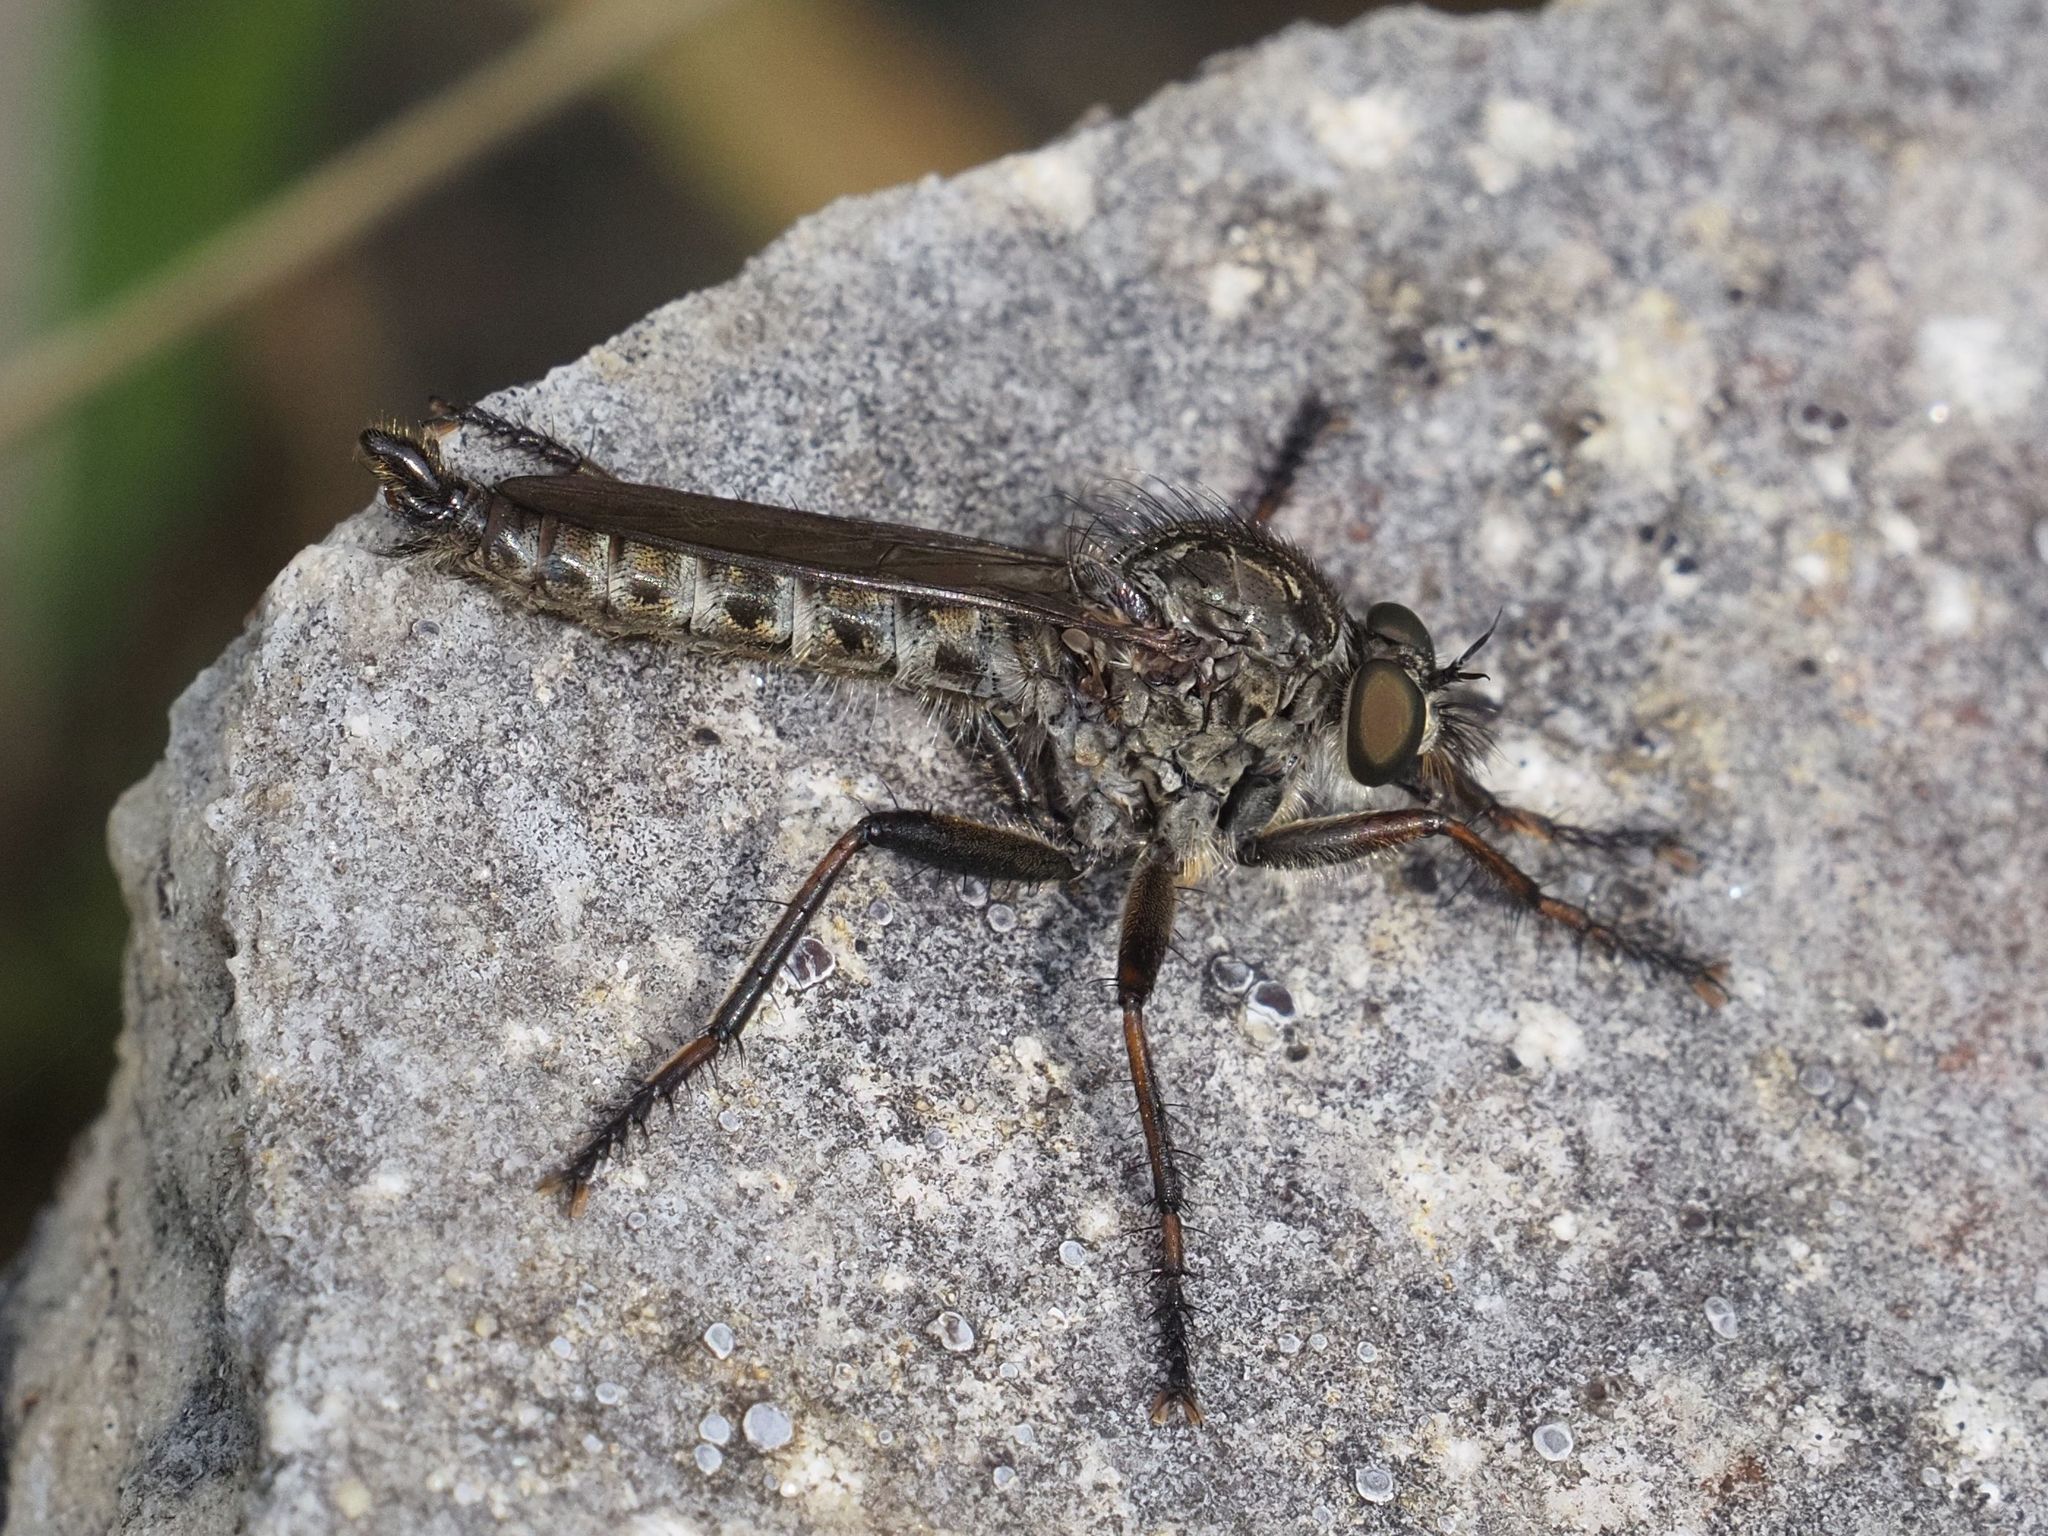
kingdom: Animalia
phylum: Arthropoda
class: Insecta
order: Diptera
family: Asilidae
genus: Machimus
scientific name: Machimus atricapillus
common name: Kite-tailed robberfly
